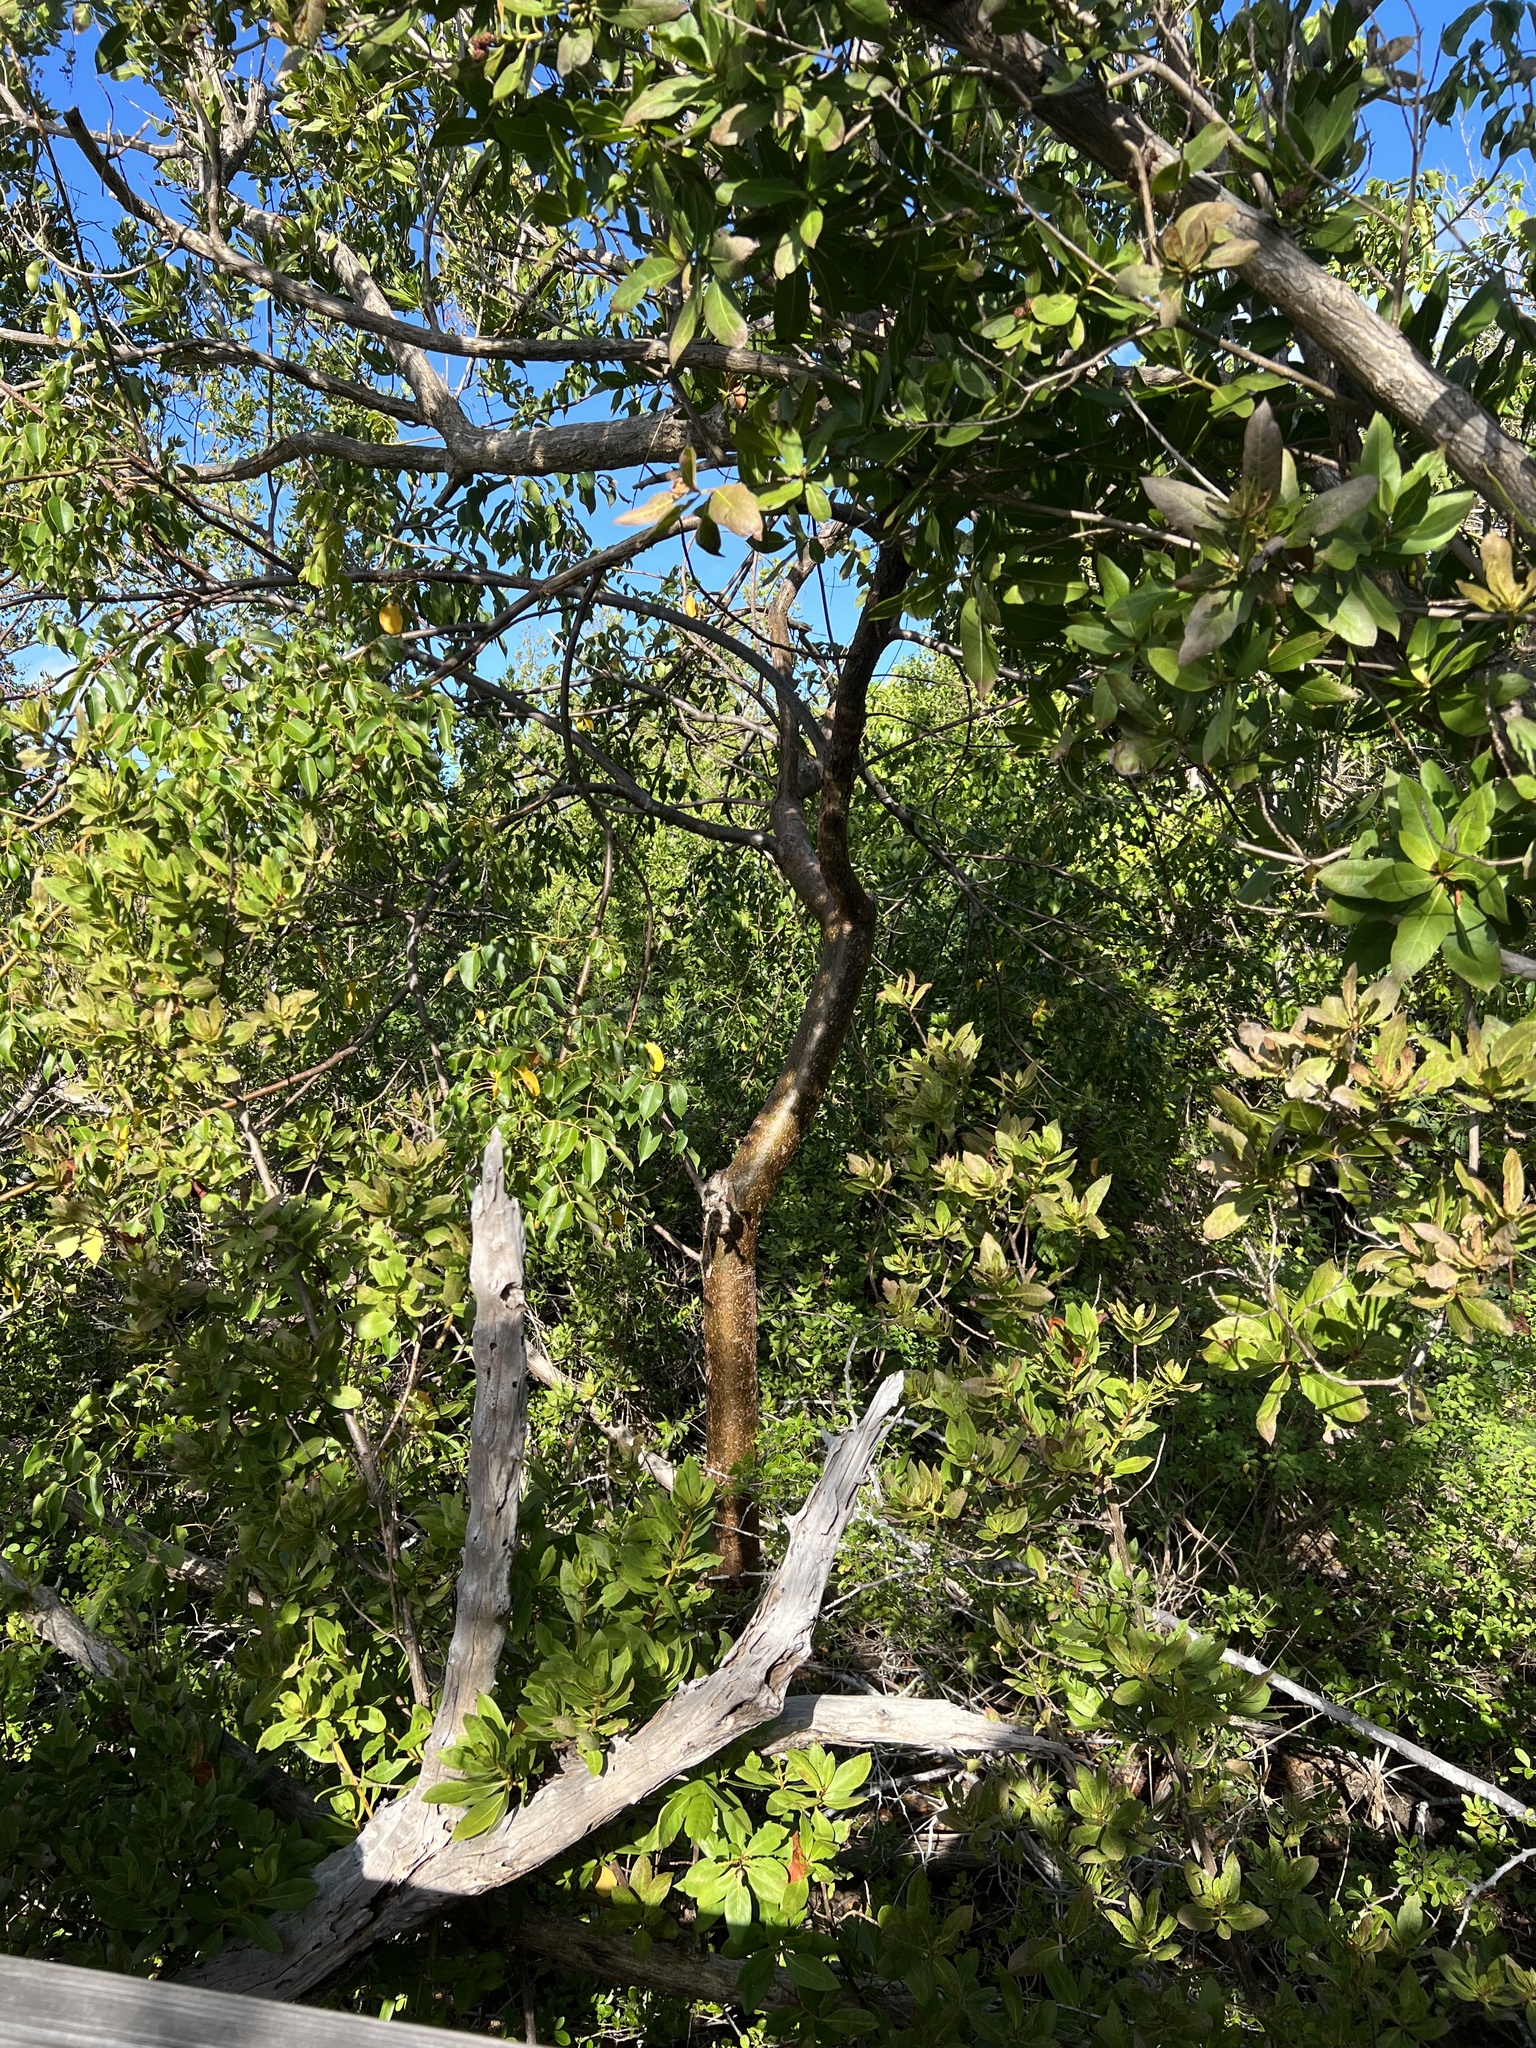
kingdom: Plantae
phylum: Tracheophyta
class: Magnoliopsida
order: Sapindales
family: Burseraceae
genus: Bursera
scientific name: Bursera simaruba
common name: Turpentine tree
